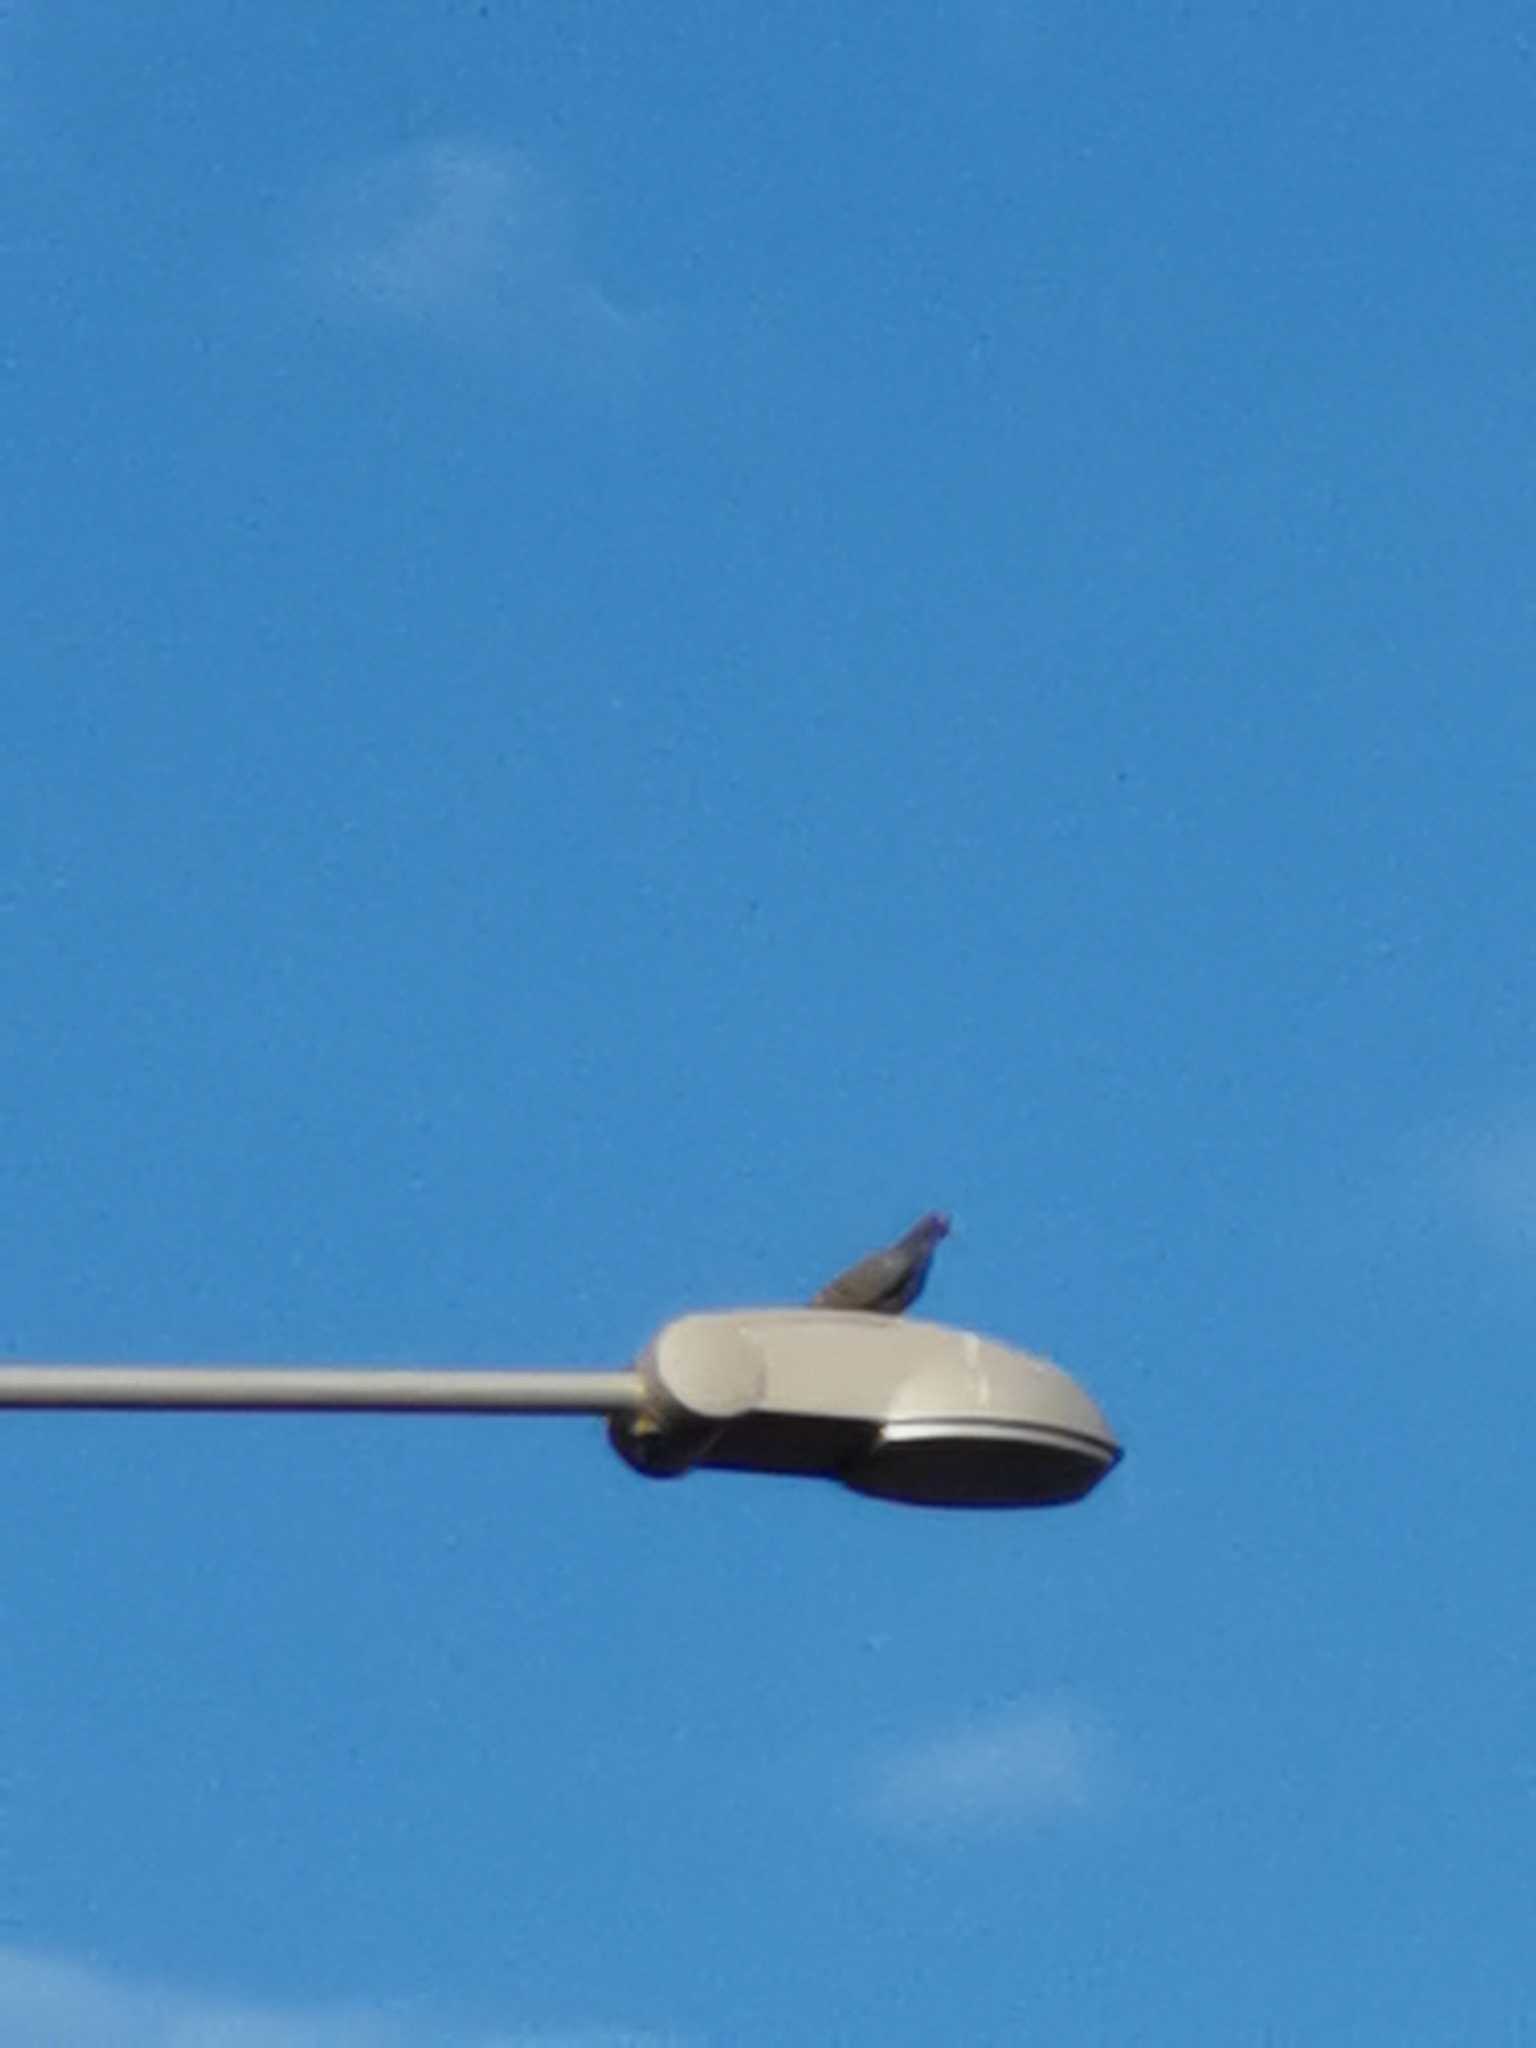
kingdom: Animalia
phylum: Chordata
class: Aves
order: Columbiformes
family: Columbidae
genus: Columba
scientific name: Columba livia
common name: Rock pigeon
